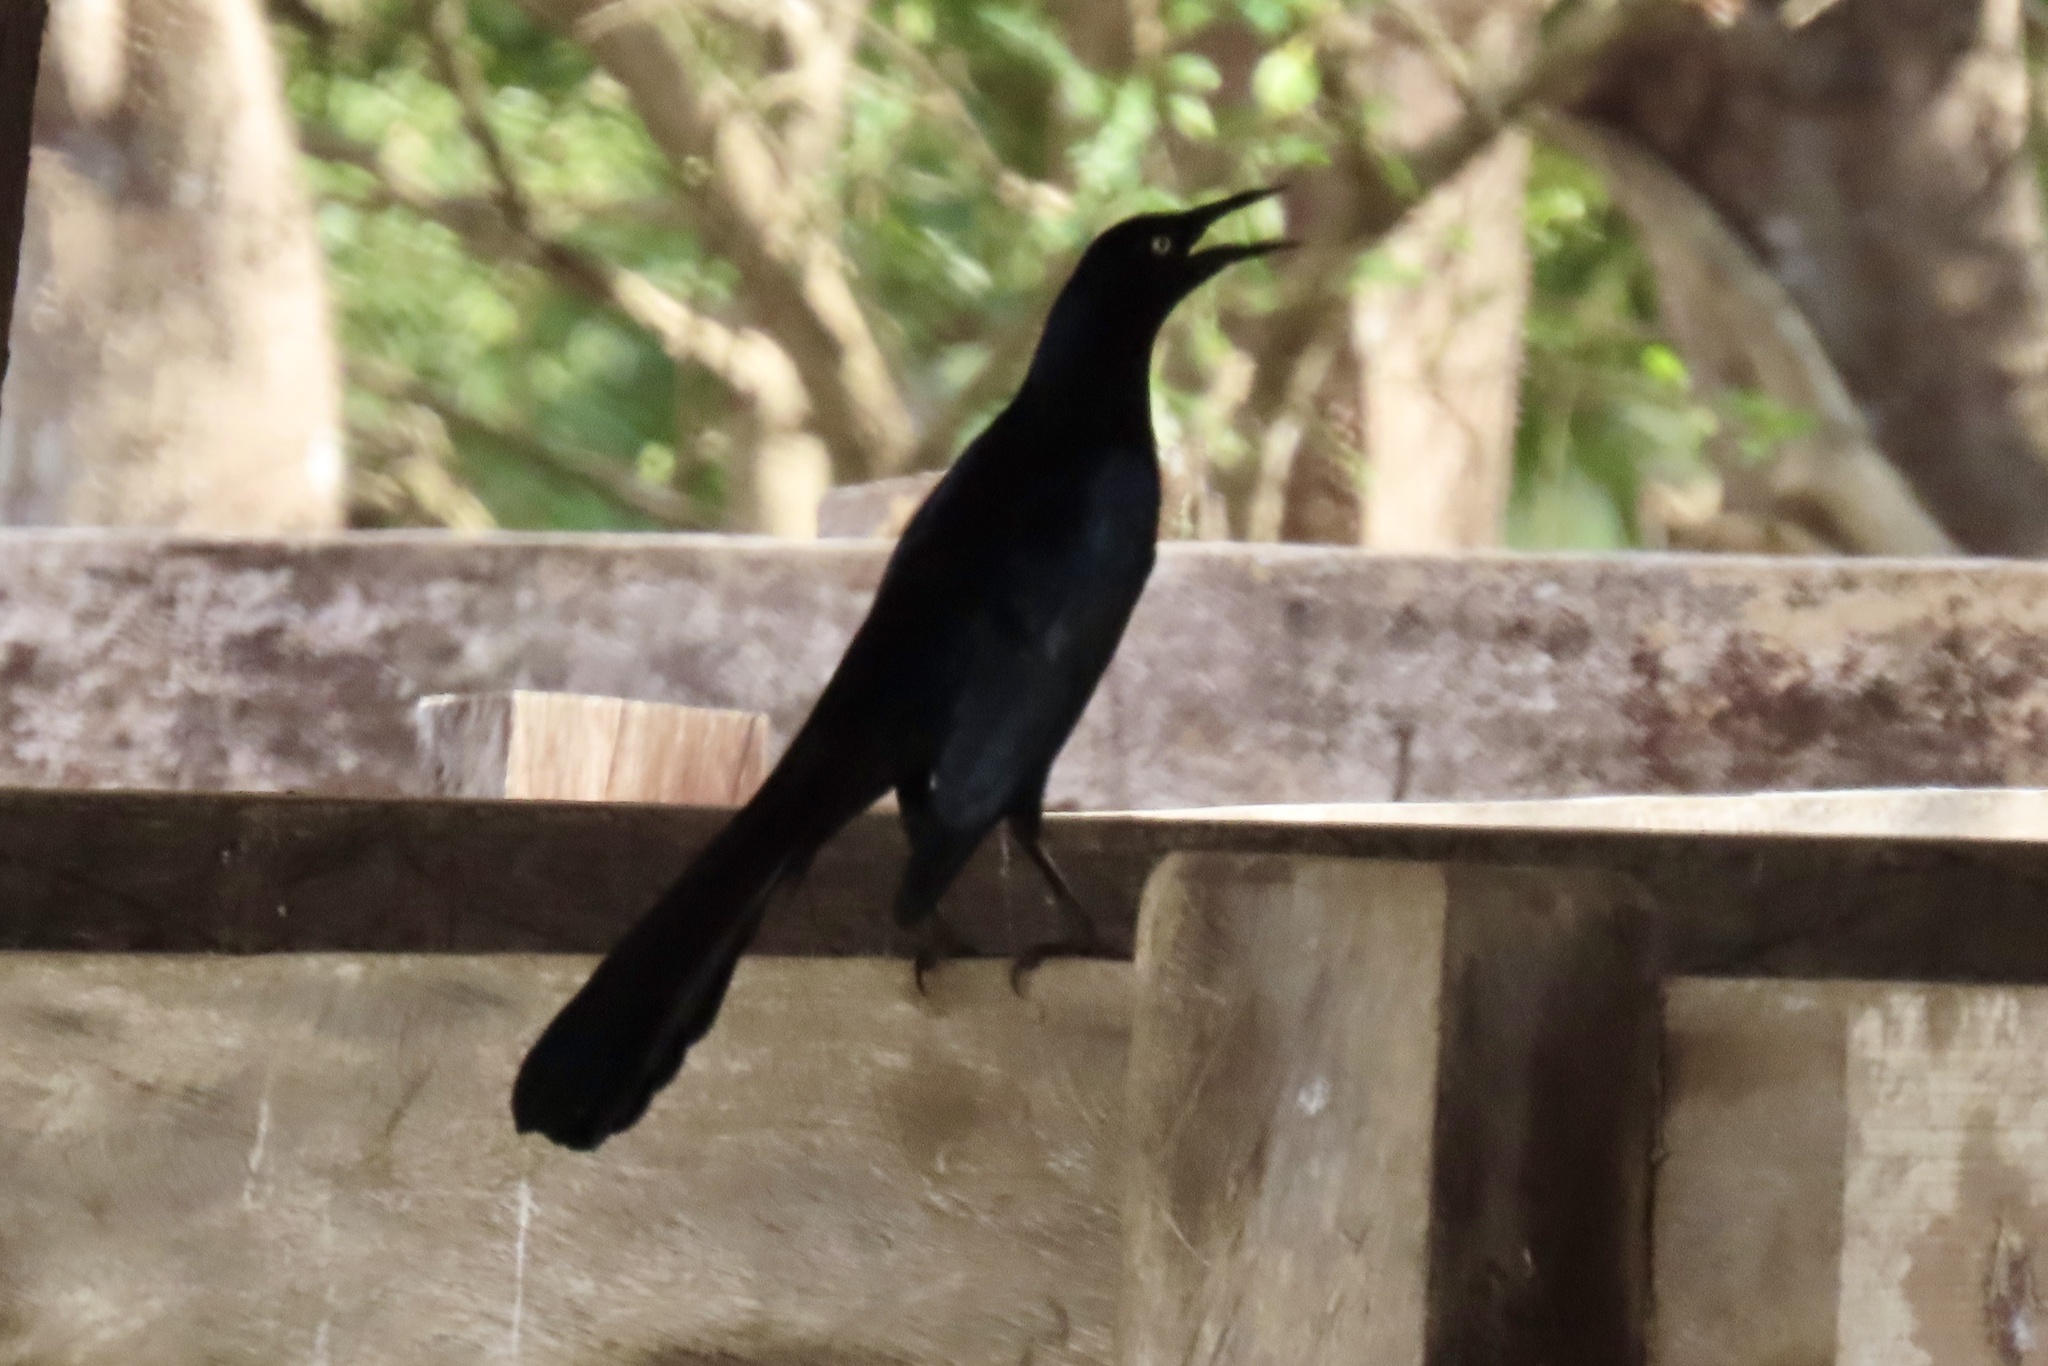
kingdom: Animalia
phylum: Chordata
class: Aves
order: Passeriformes
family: Icteridae
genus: Quiscalus
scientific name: Quiscalus mexicanus
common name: Great-tailed grackle
